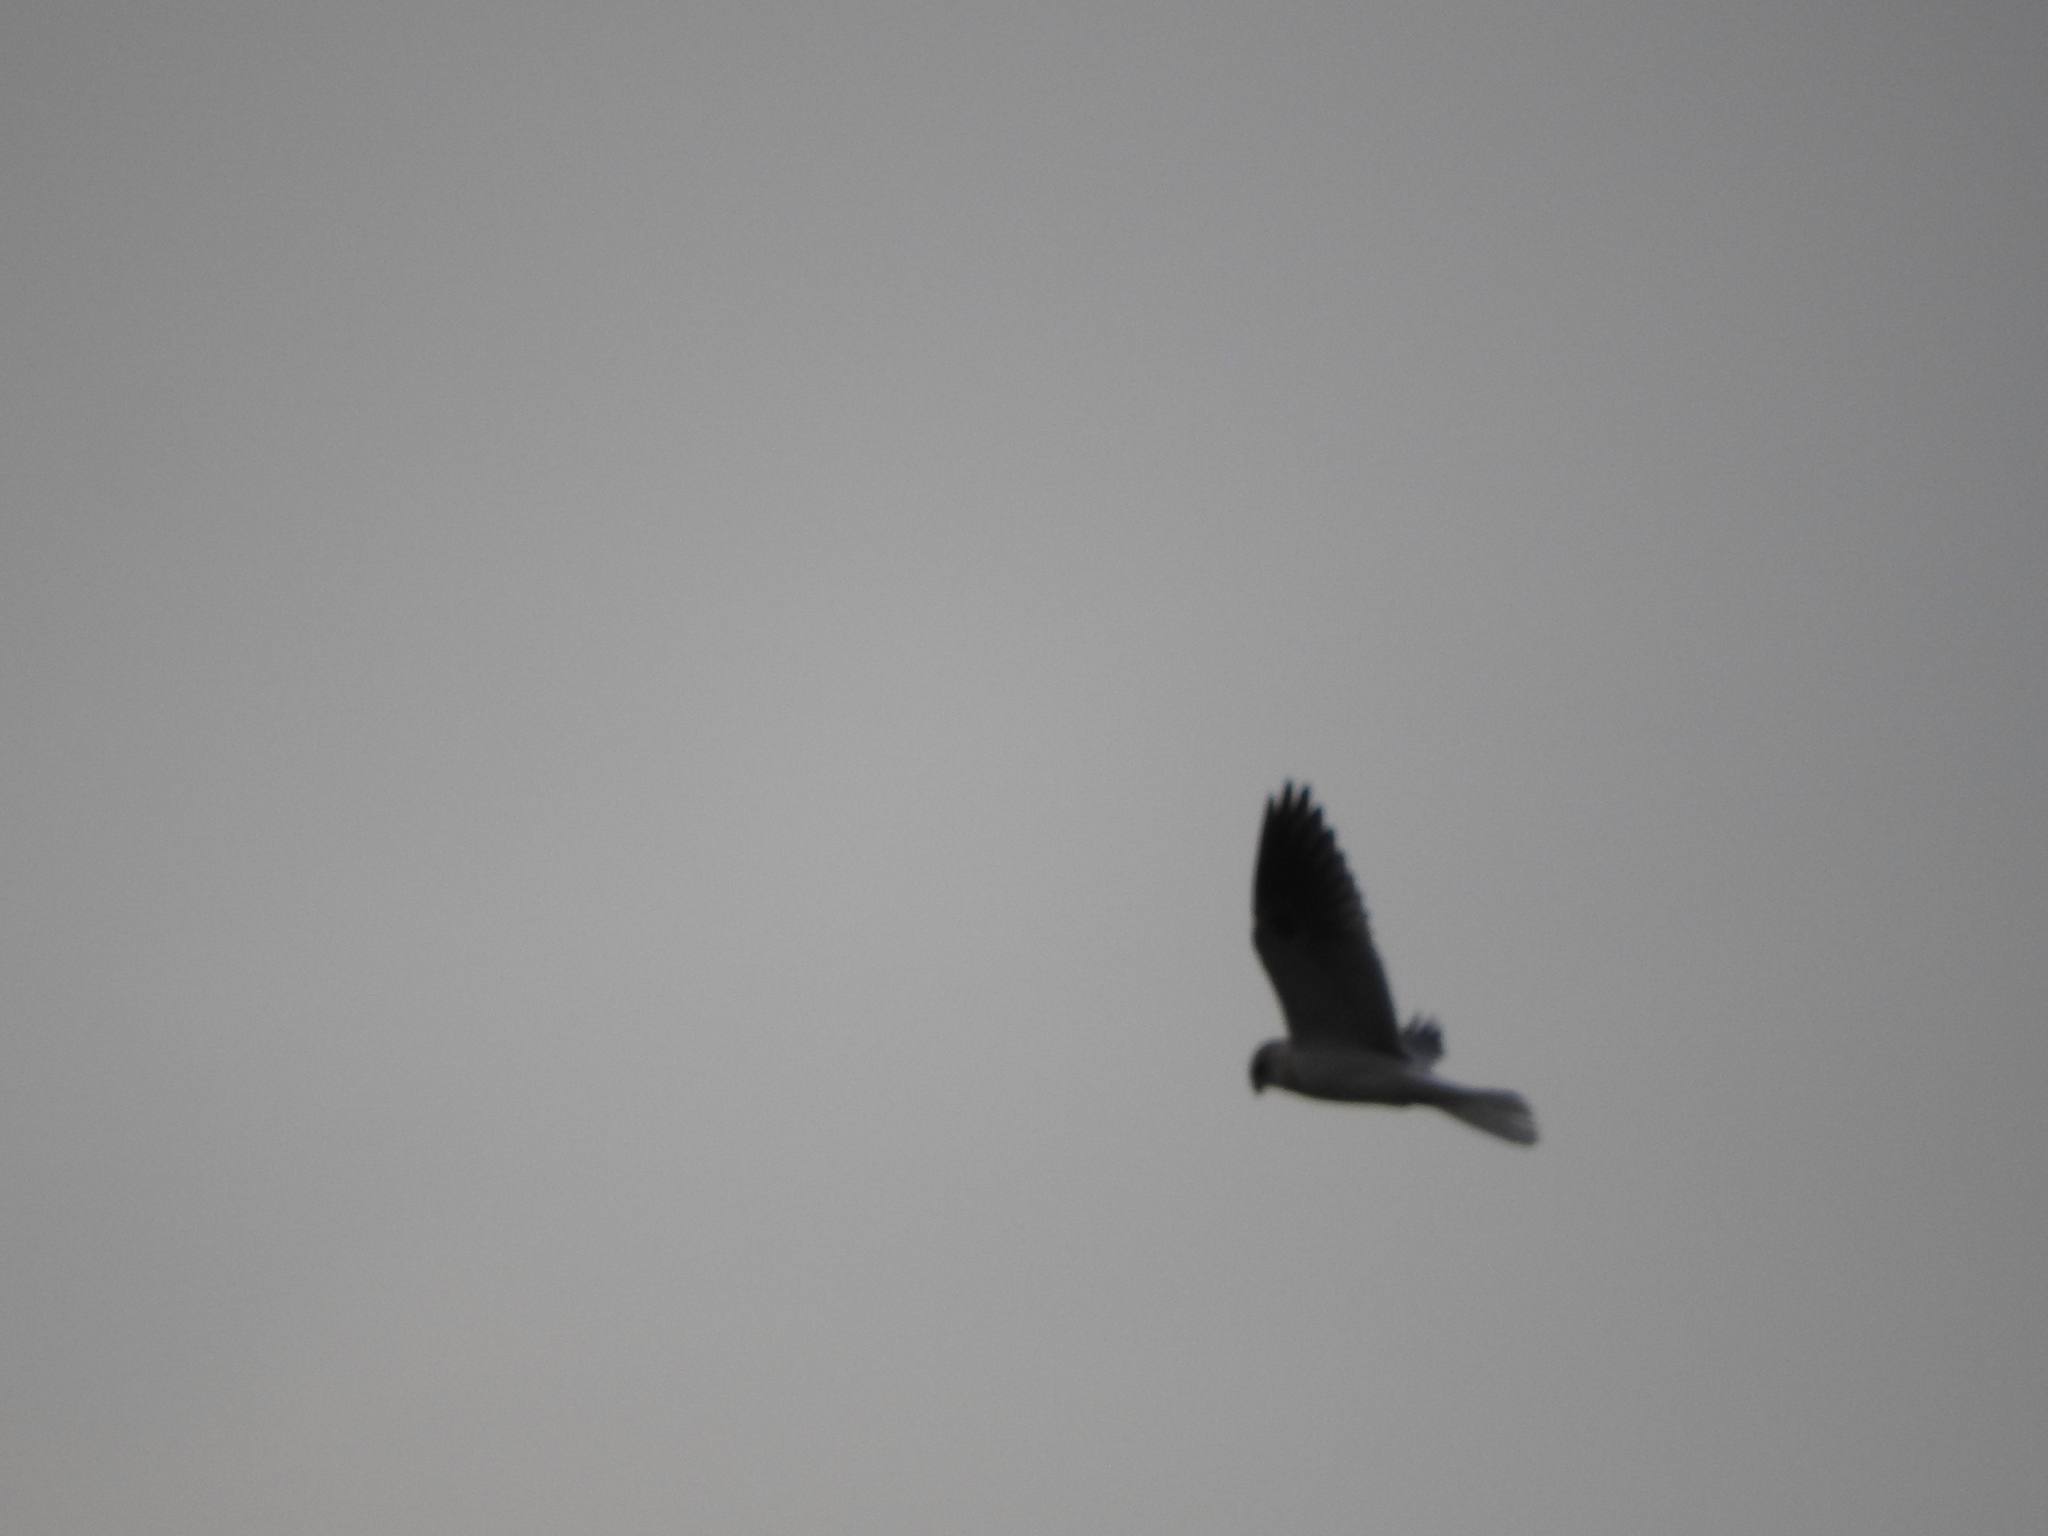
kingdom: Animalia
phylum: Chordata
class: Aves
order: Accipitriformes
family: Accipitridae
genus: Elanus
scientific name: Elanus leucurus
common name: White-tailed kite
